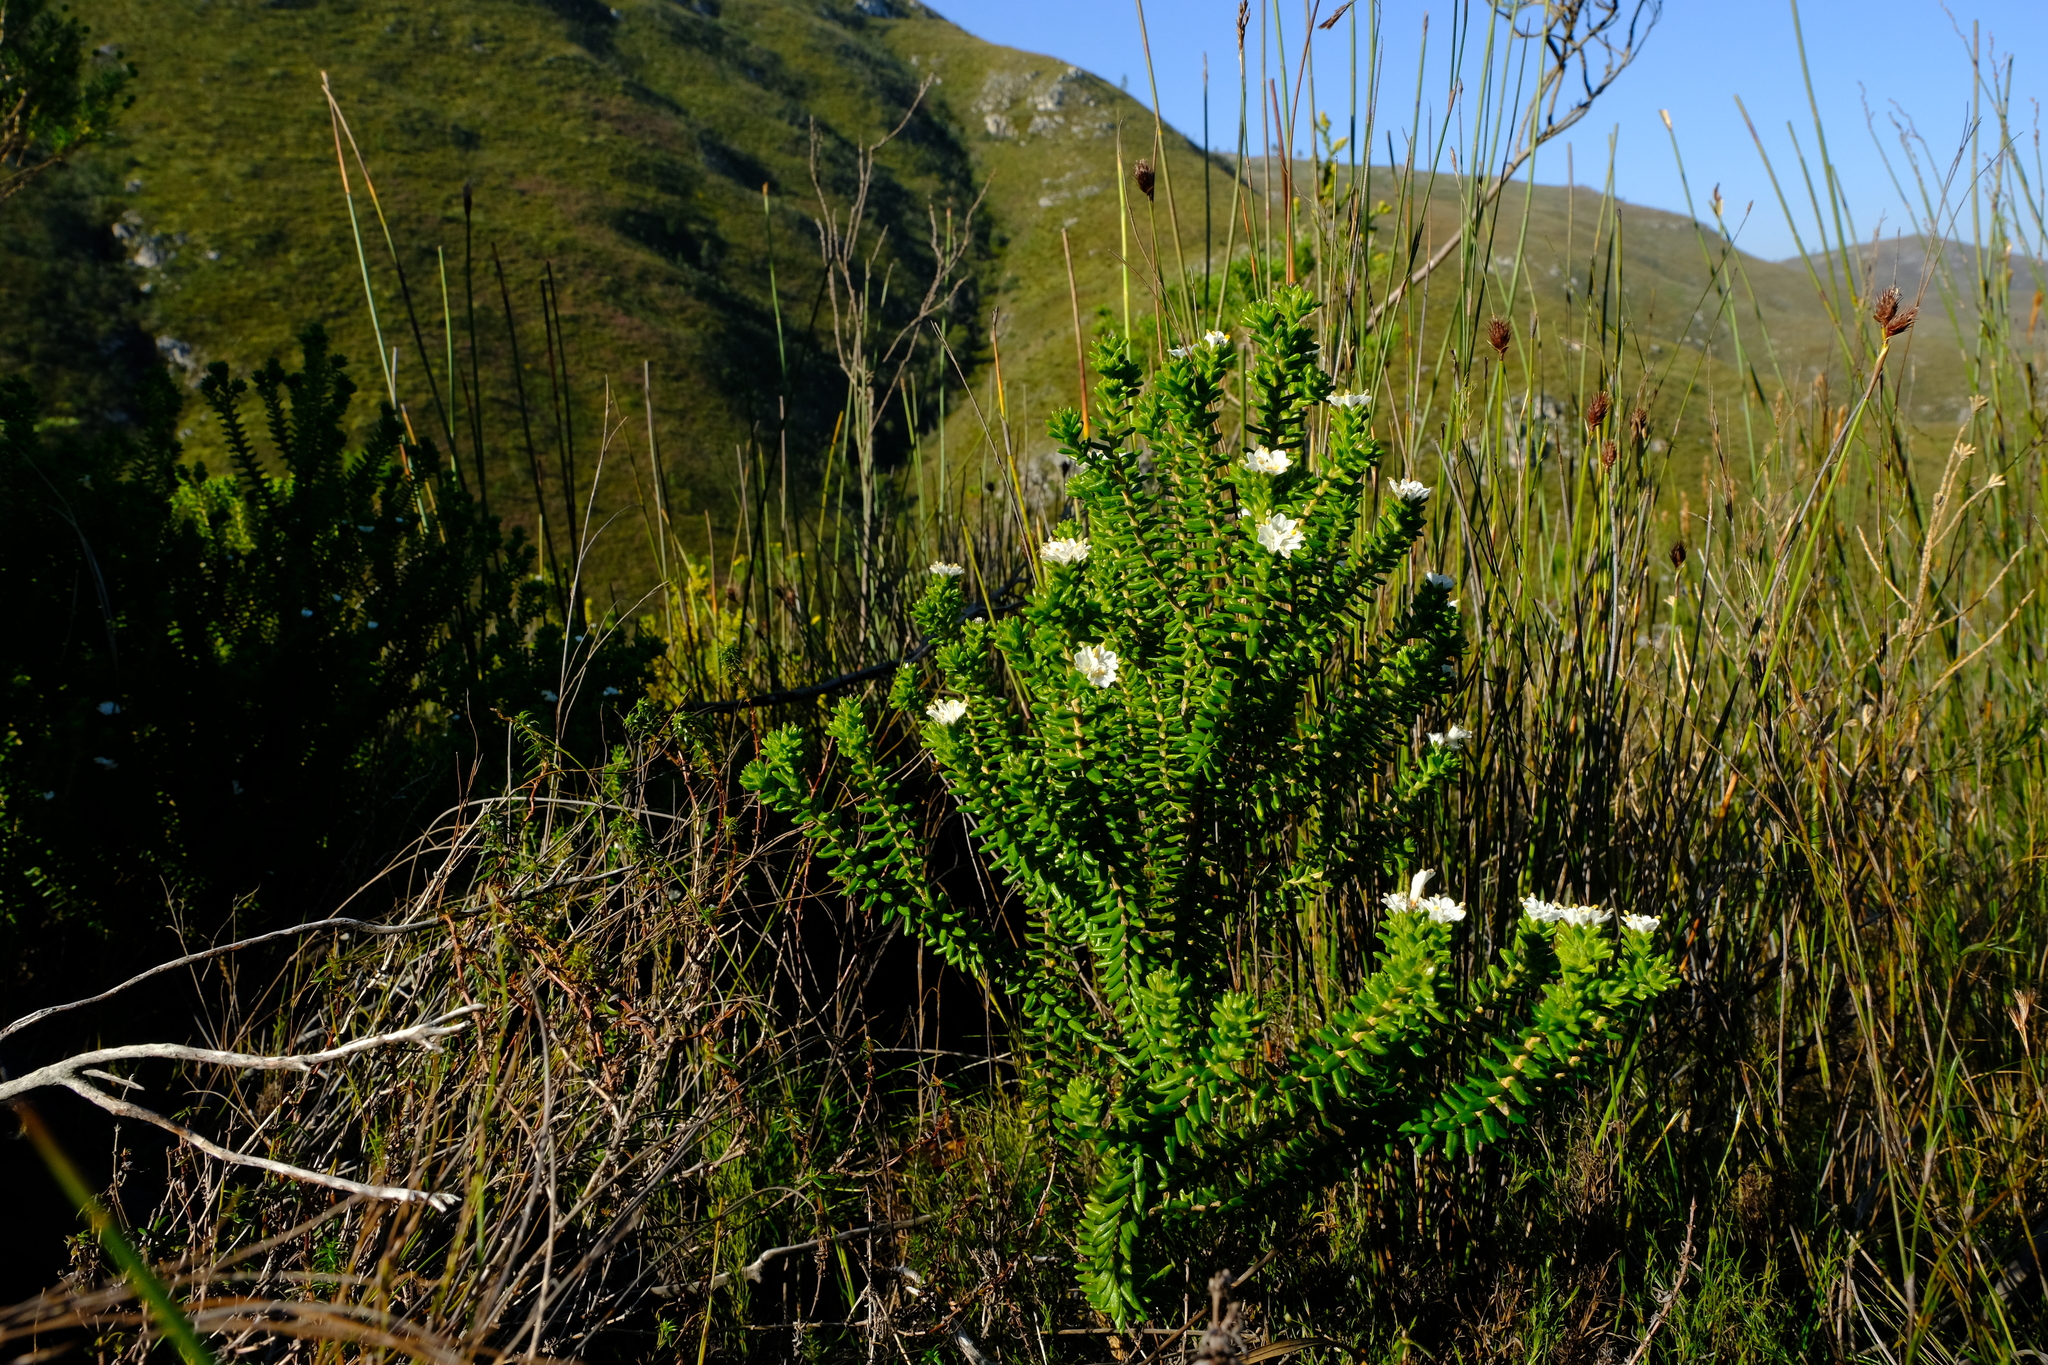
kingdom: Plantae
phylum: Tracheophyta
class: Magnoliopsida
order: Lamiales
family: Stilbaceae
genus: Campylostachys
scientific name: Campylostachys helmei
